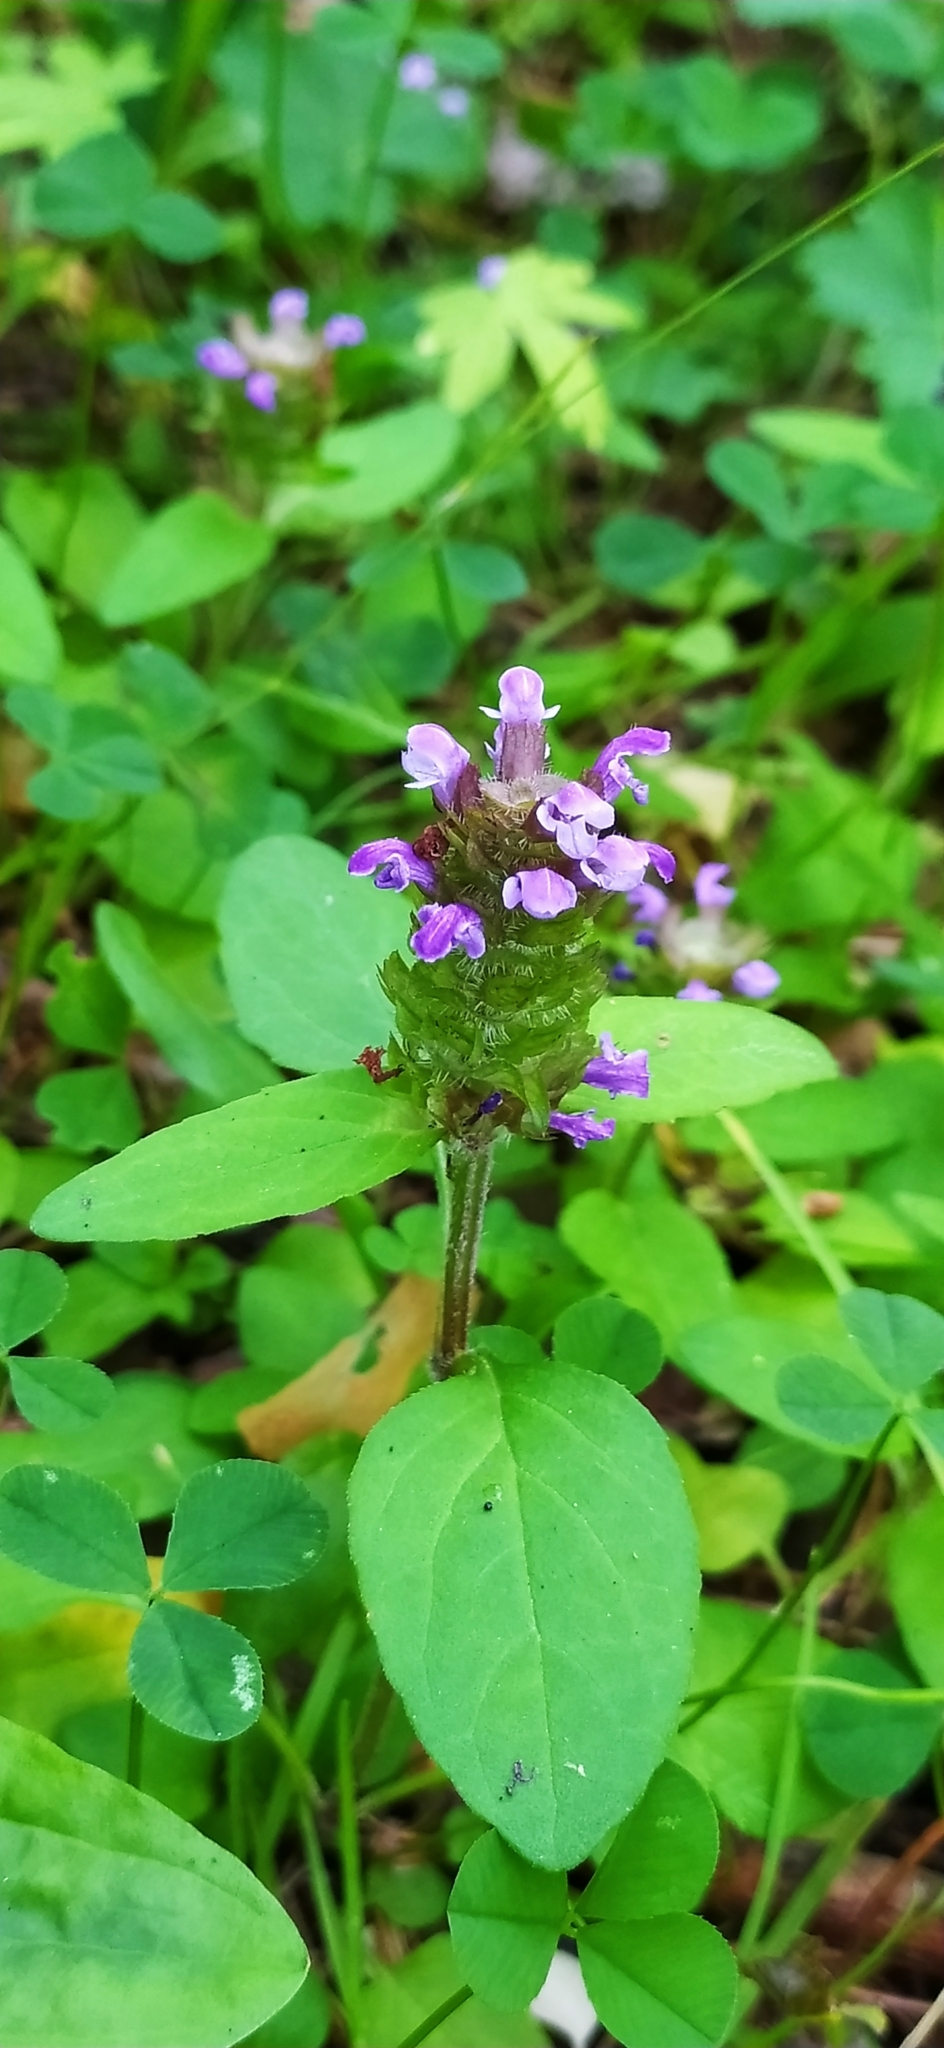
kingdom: Plantae
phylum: Tracheophyta
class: Magnoliopsida
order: Lamiales
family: Lamiaceae
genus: Prunella
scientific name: Prunella vulgaris
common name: Heal-all
